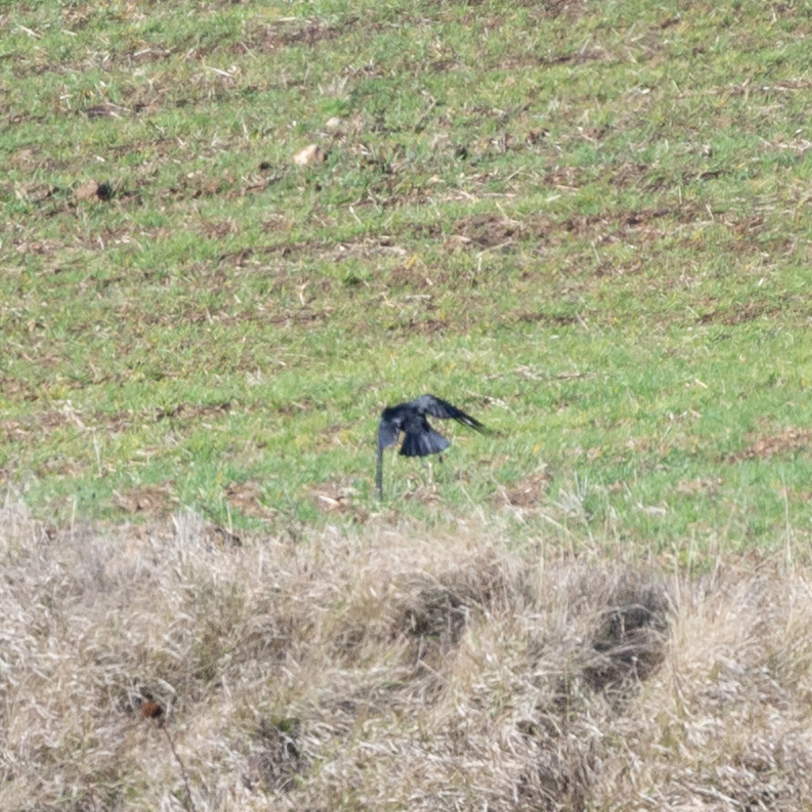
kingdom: Animalia
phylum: Chordata
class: Aves
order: Passeriformes
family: Corvidae
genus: Corvus
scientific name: Corvus corone
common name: Carrion crow
